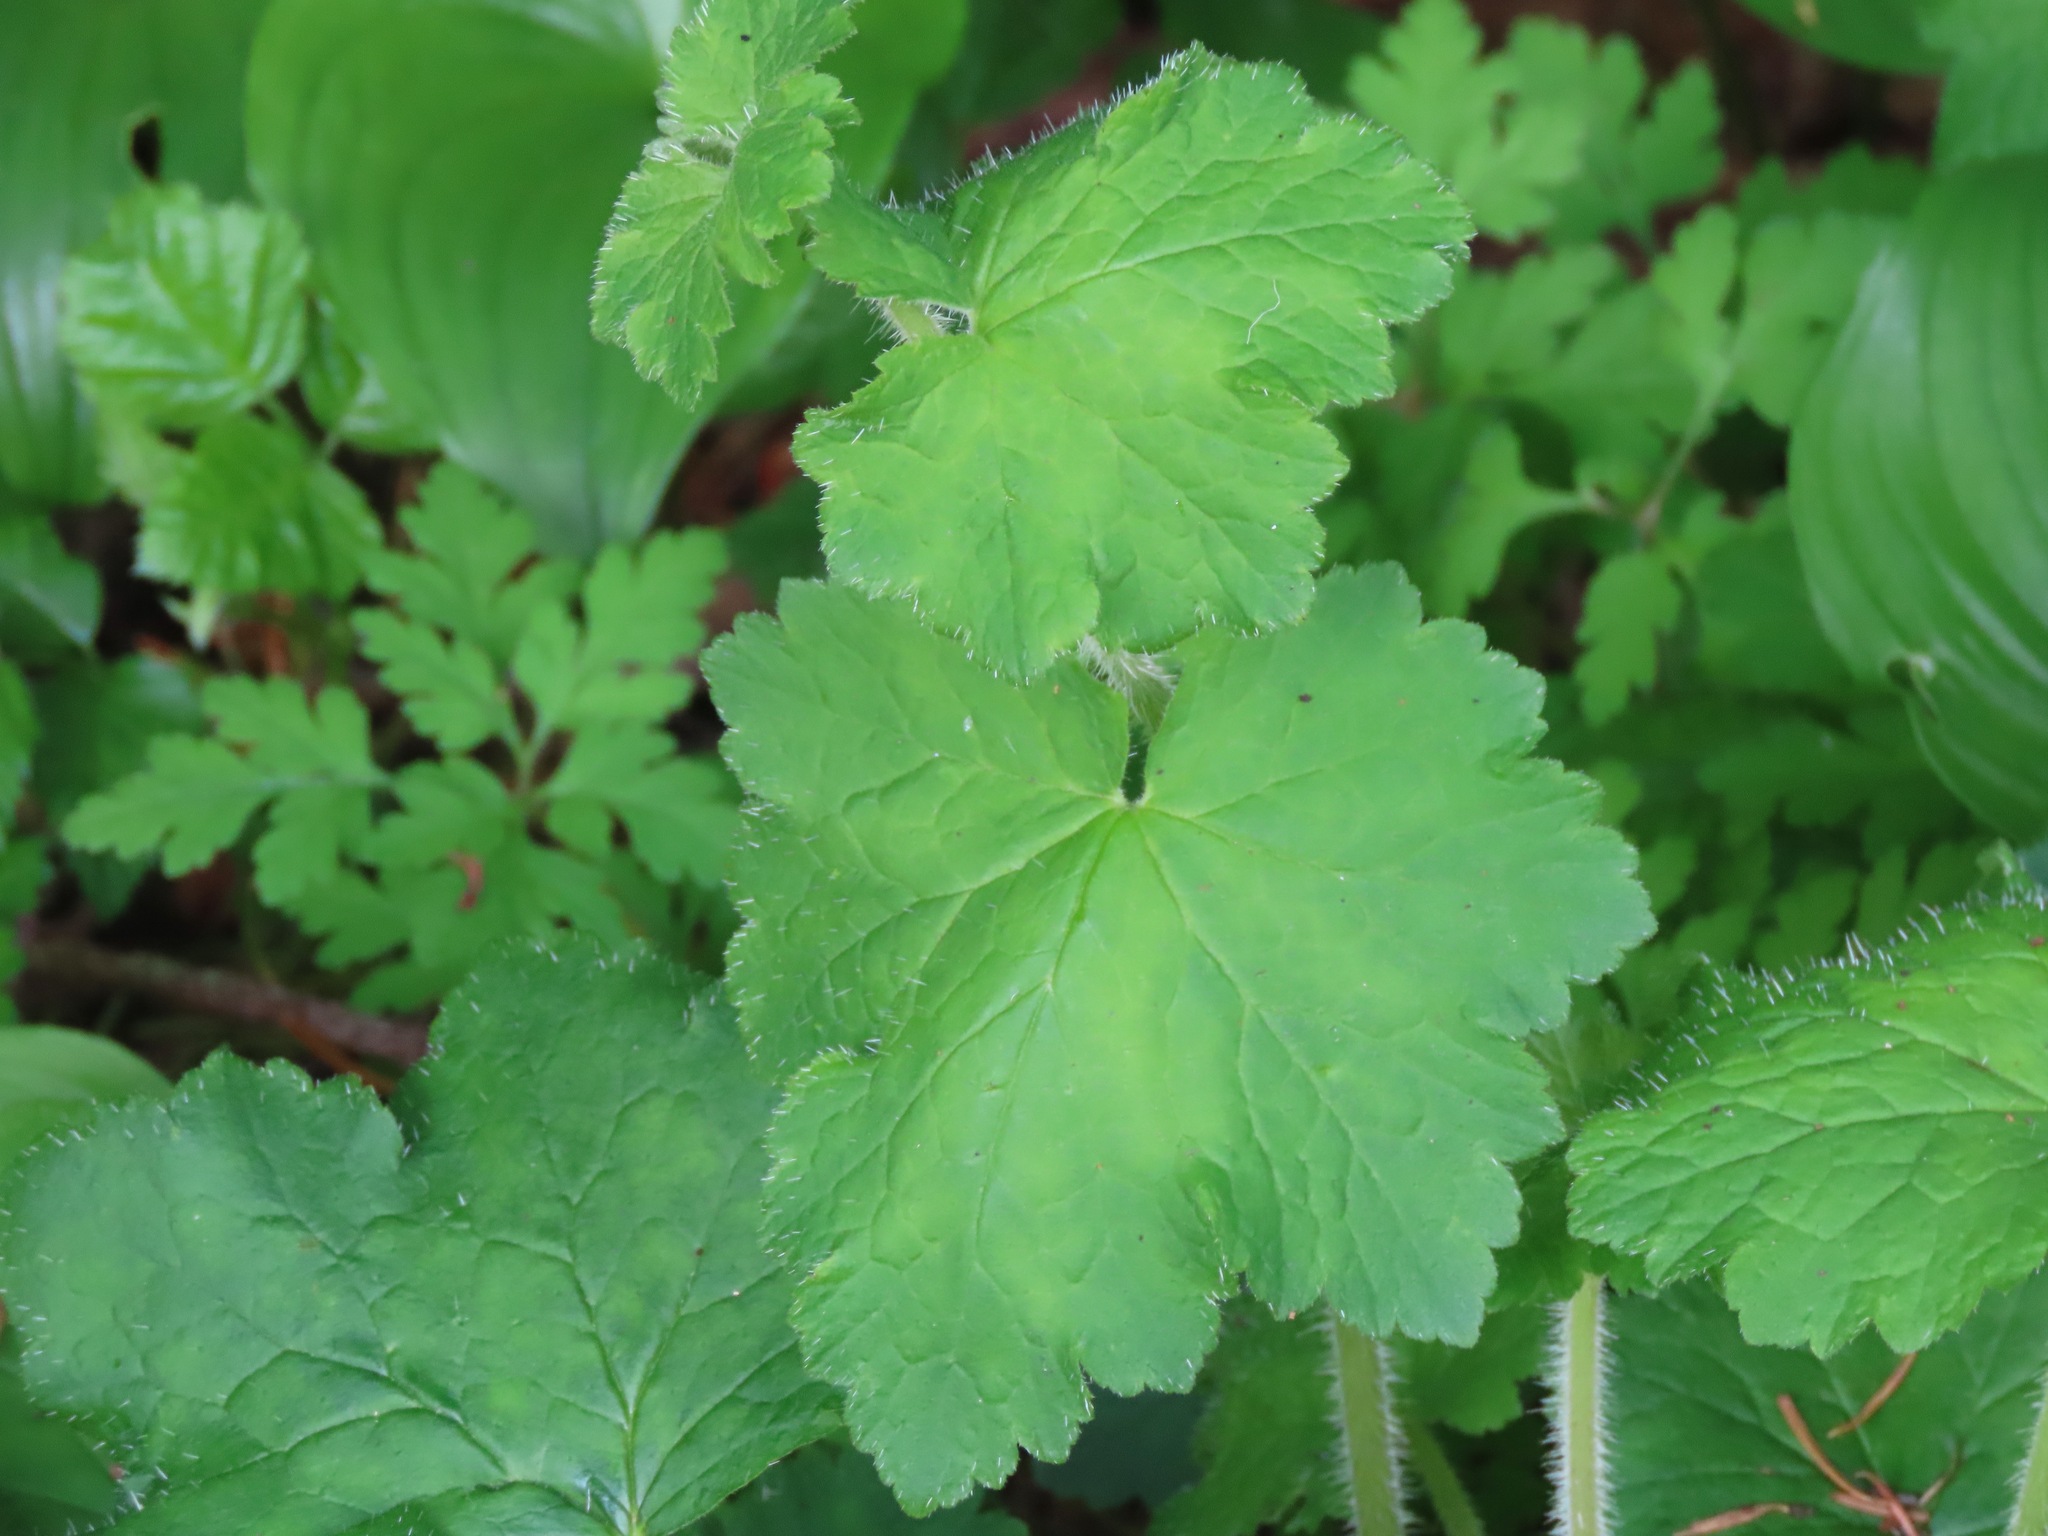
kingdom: Plantae
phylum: Tracheophyta
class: Magnoliopsida
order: Saxifragales
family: Saxifragaceae
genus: Tellima
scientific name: Tellima grandiflora
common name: Fringecups
